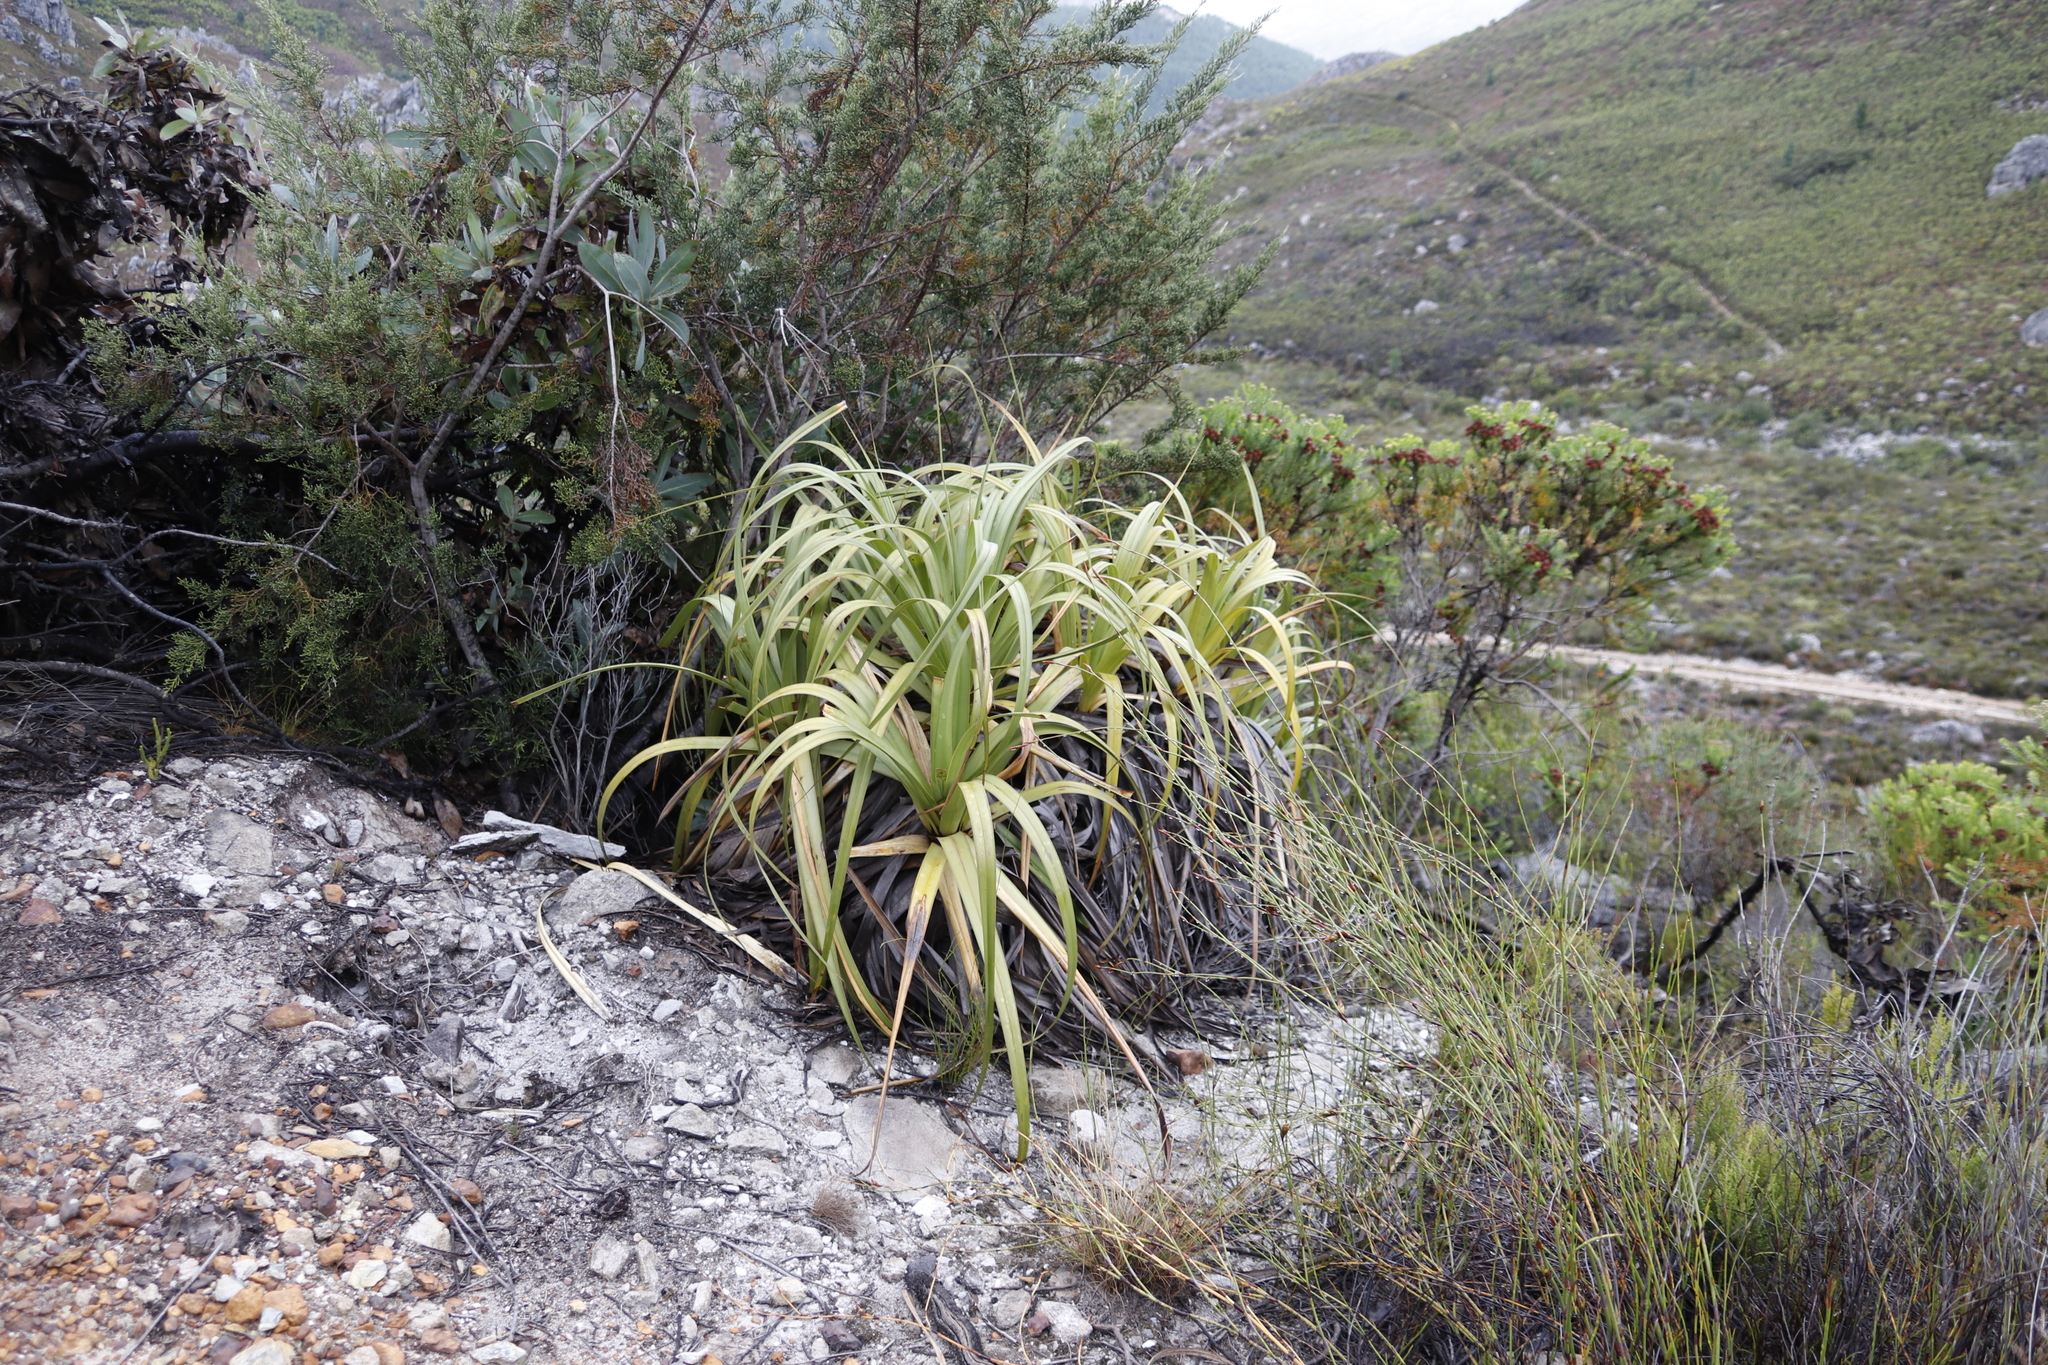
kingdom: Plantae
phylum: Tracheophyta
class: Liliopsida
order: Poales
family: Cyperaceae
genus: Tetraria
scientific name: Tetraria thermalis
